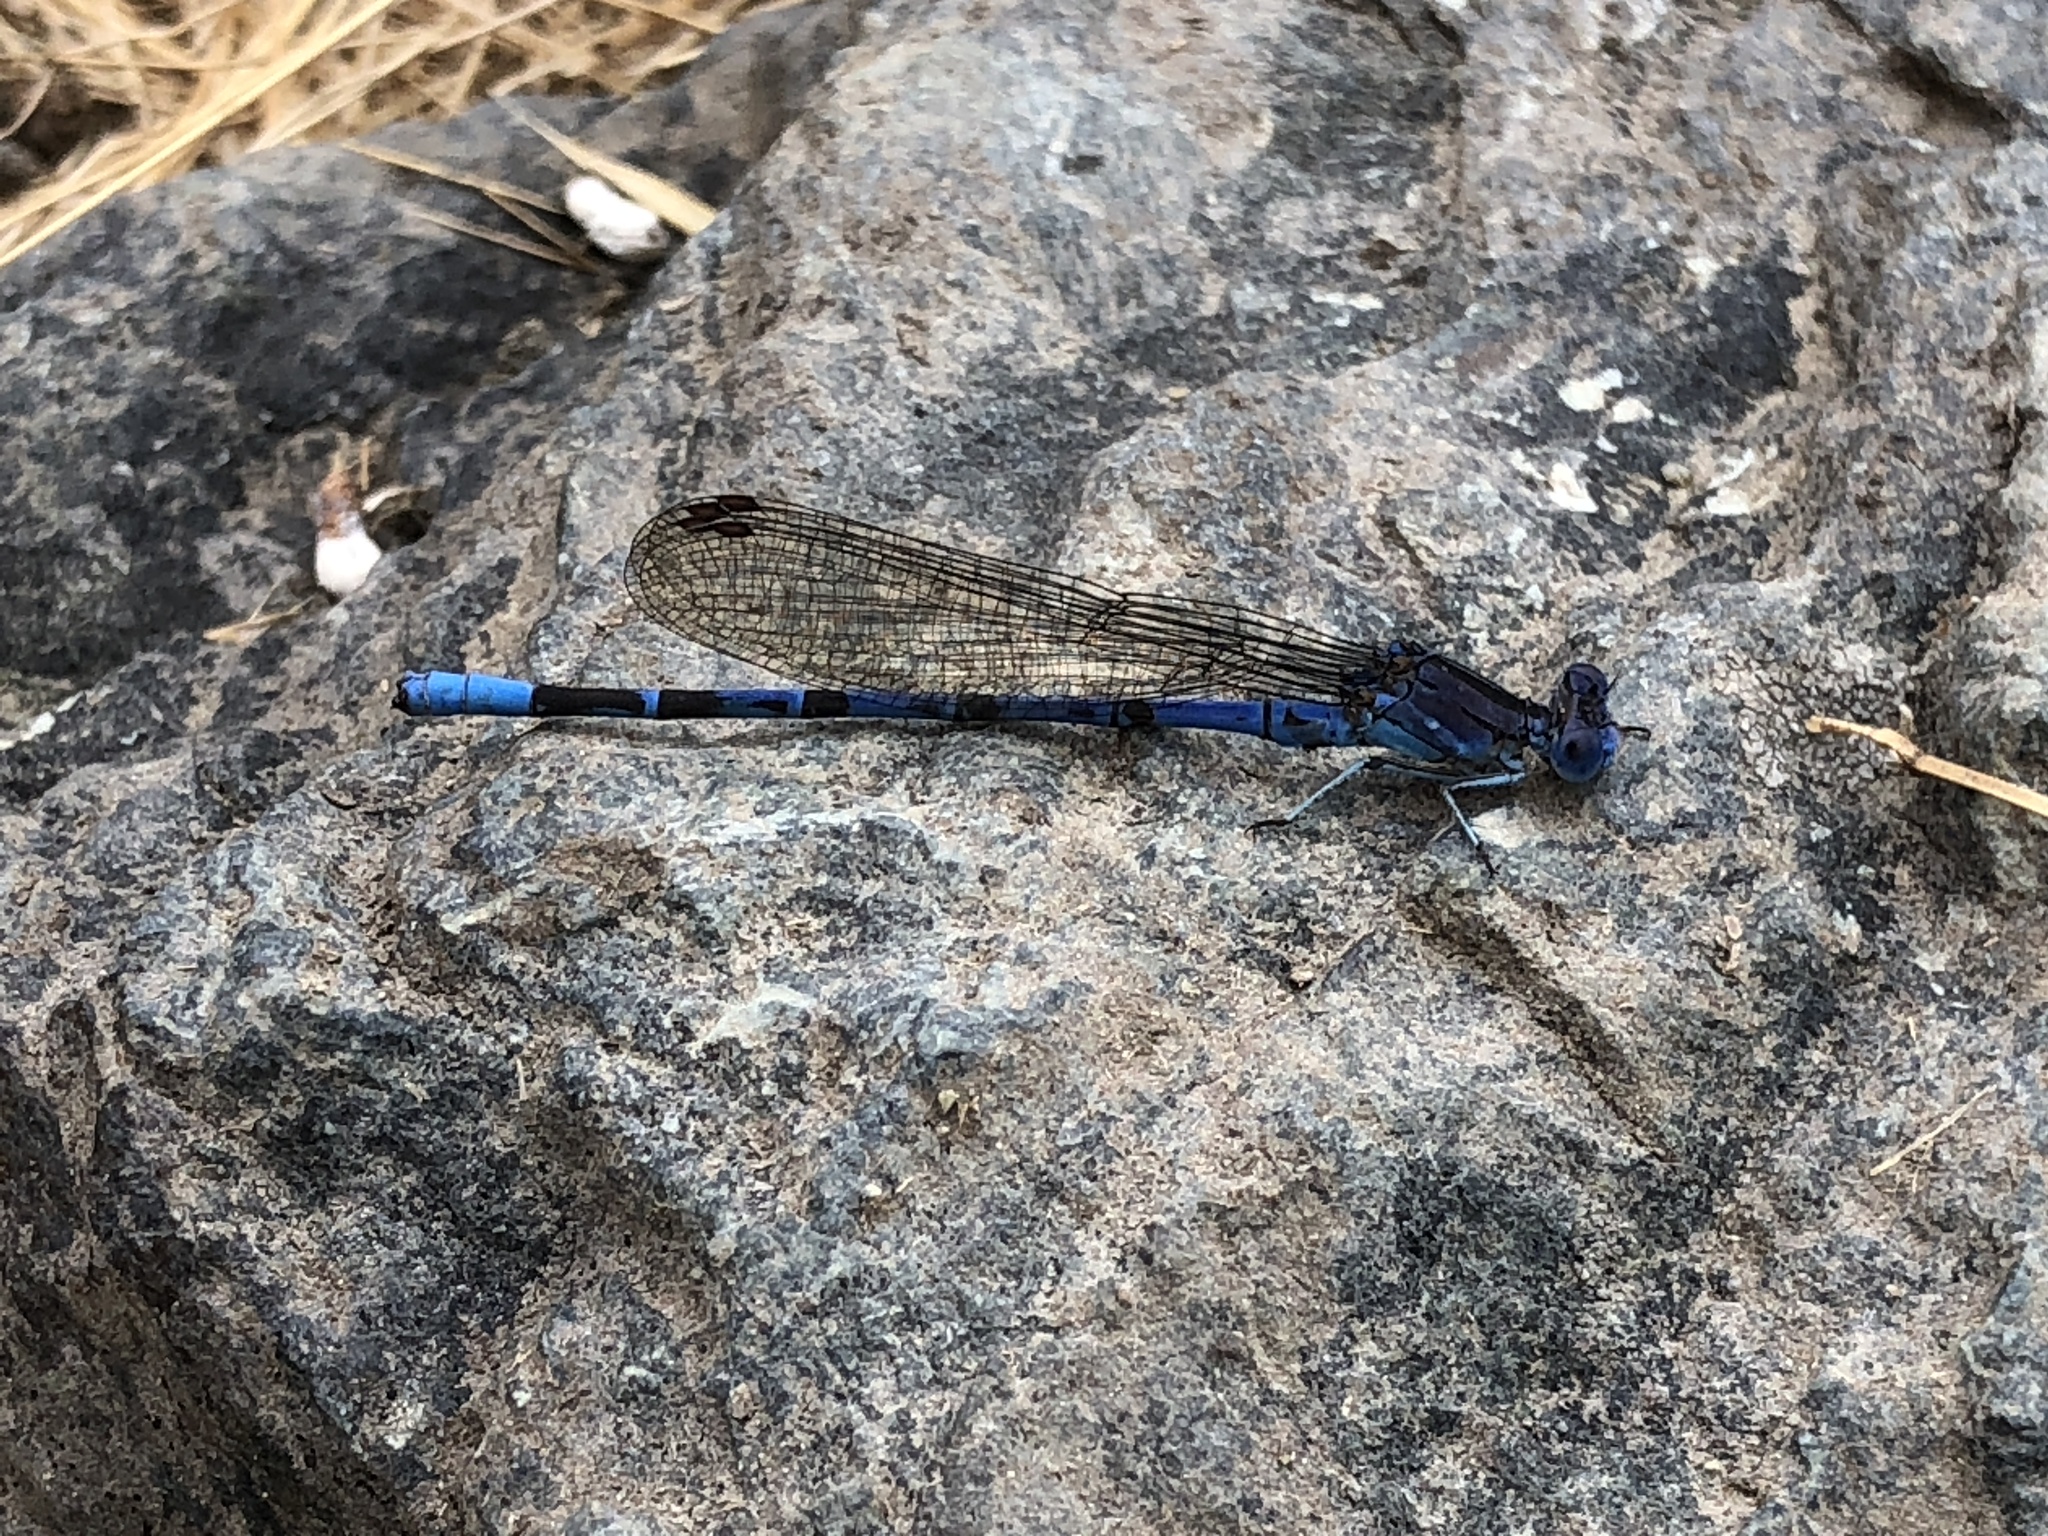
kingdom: Animalia
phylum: Arthropoda
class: Insecta
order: Odonata
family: Coenagrionidae
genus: Argia
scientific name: Argia vivida
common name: Vivid dancer
